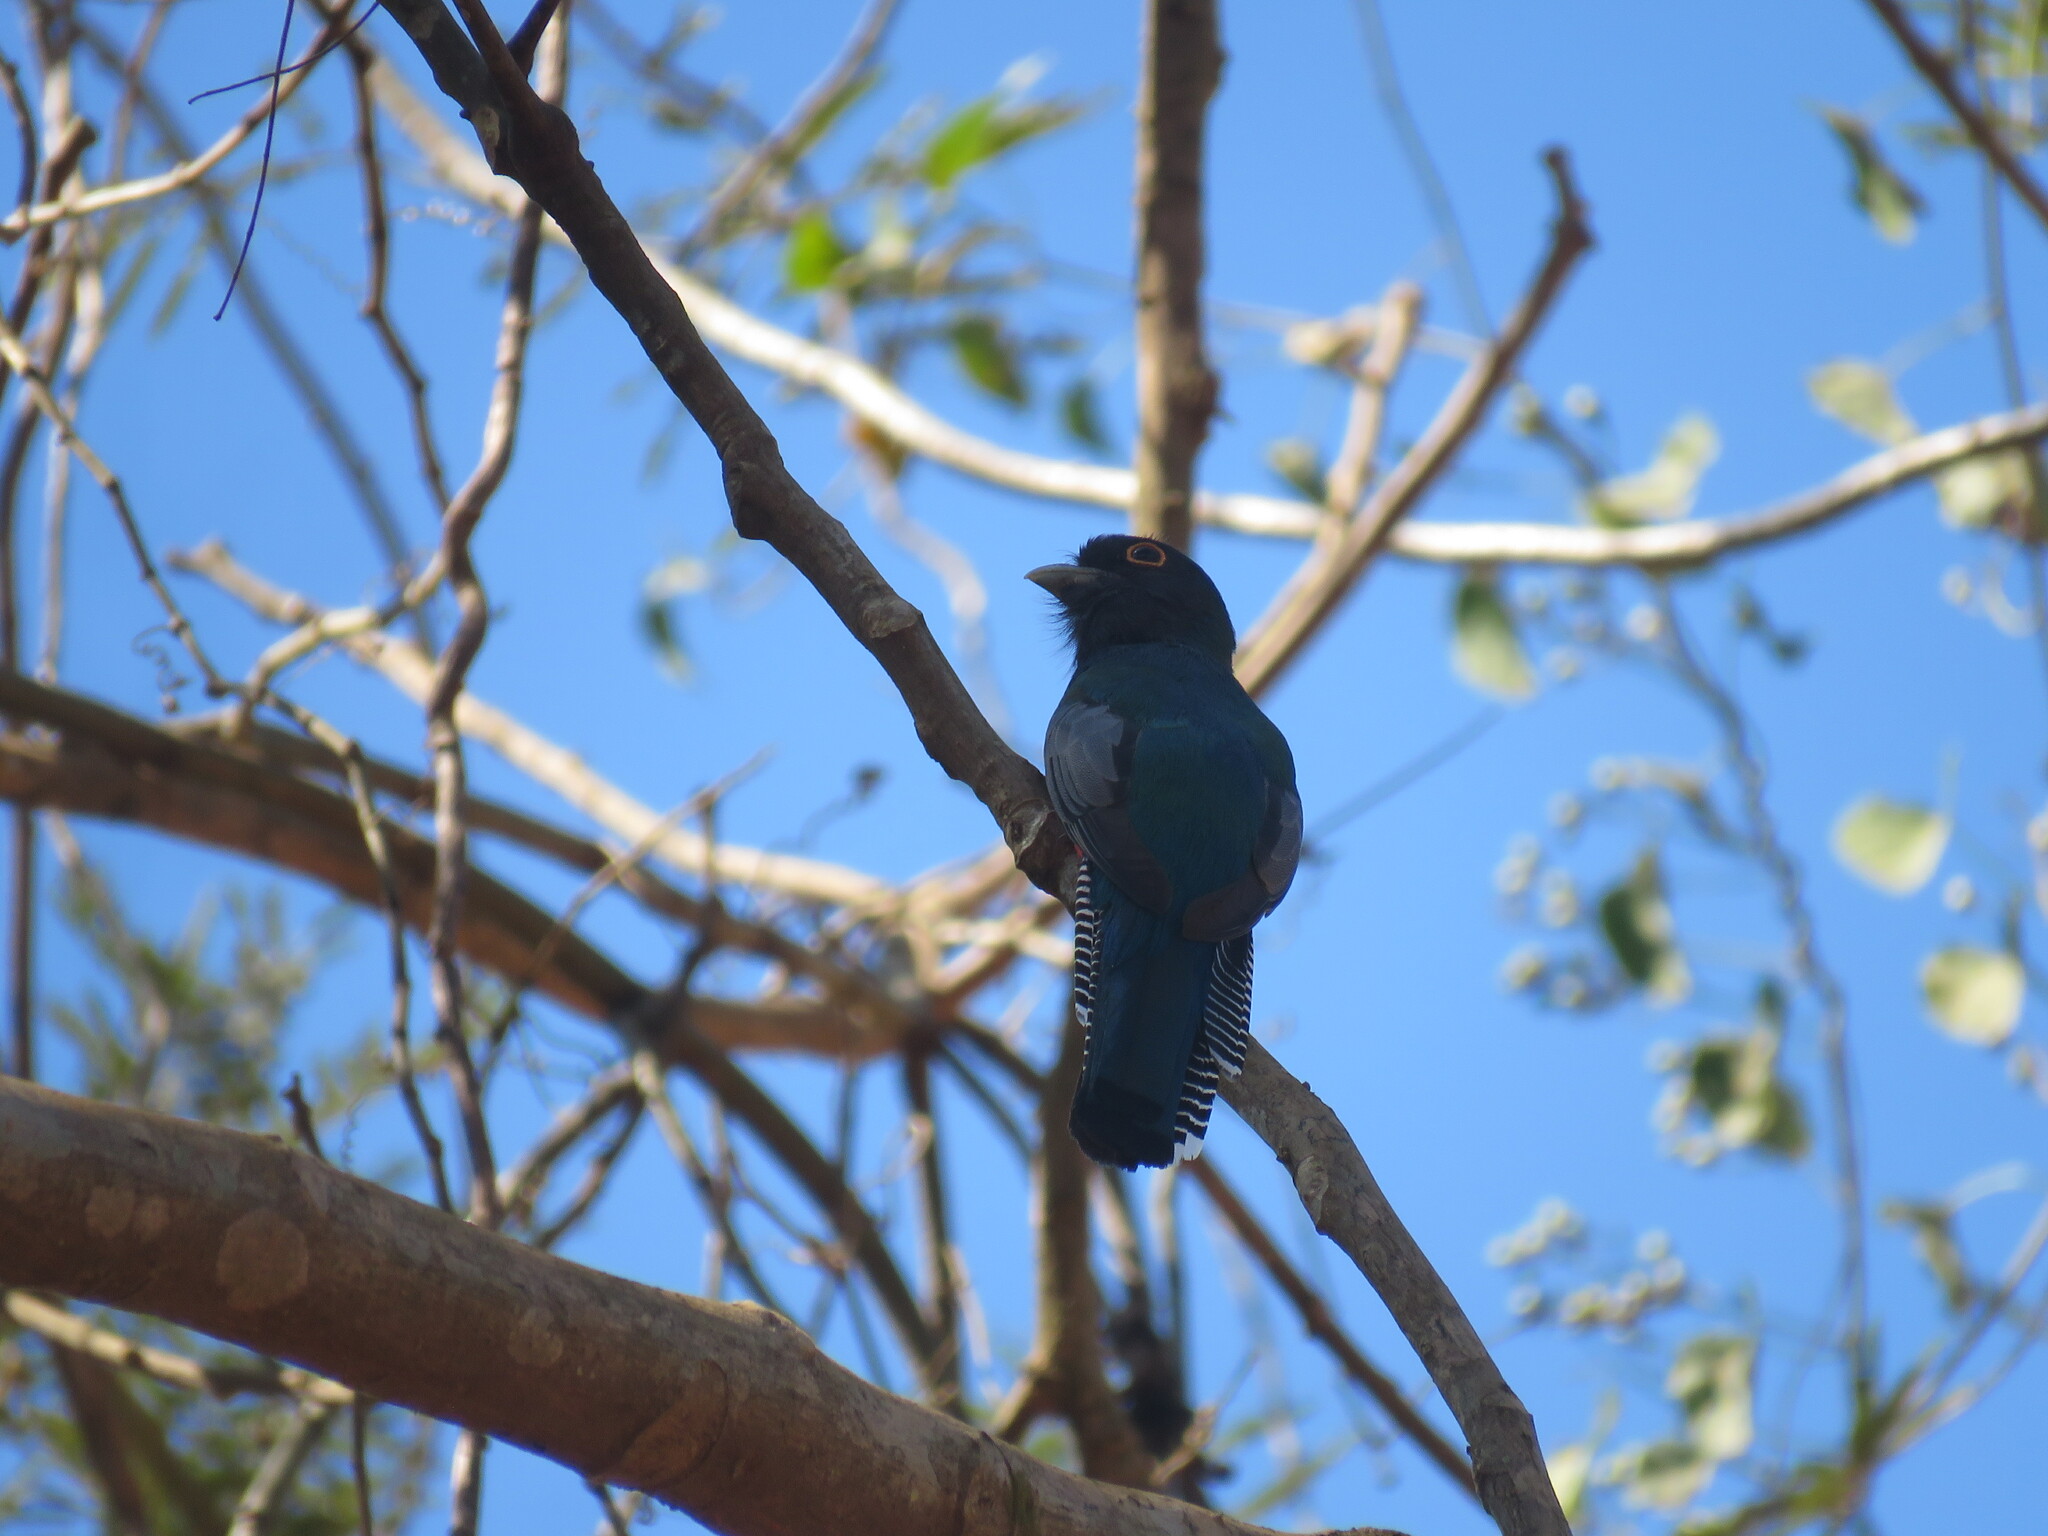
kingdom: Animalia
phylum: Chordata
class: Aves
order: Trogoniformes
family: Trogonidae
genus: Trogon
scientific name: Trogon curucui
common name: Blue-crowned trogon
